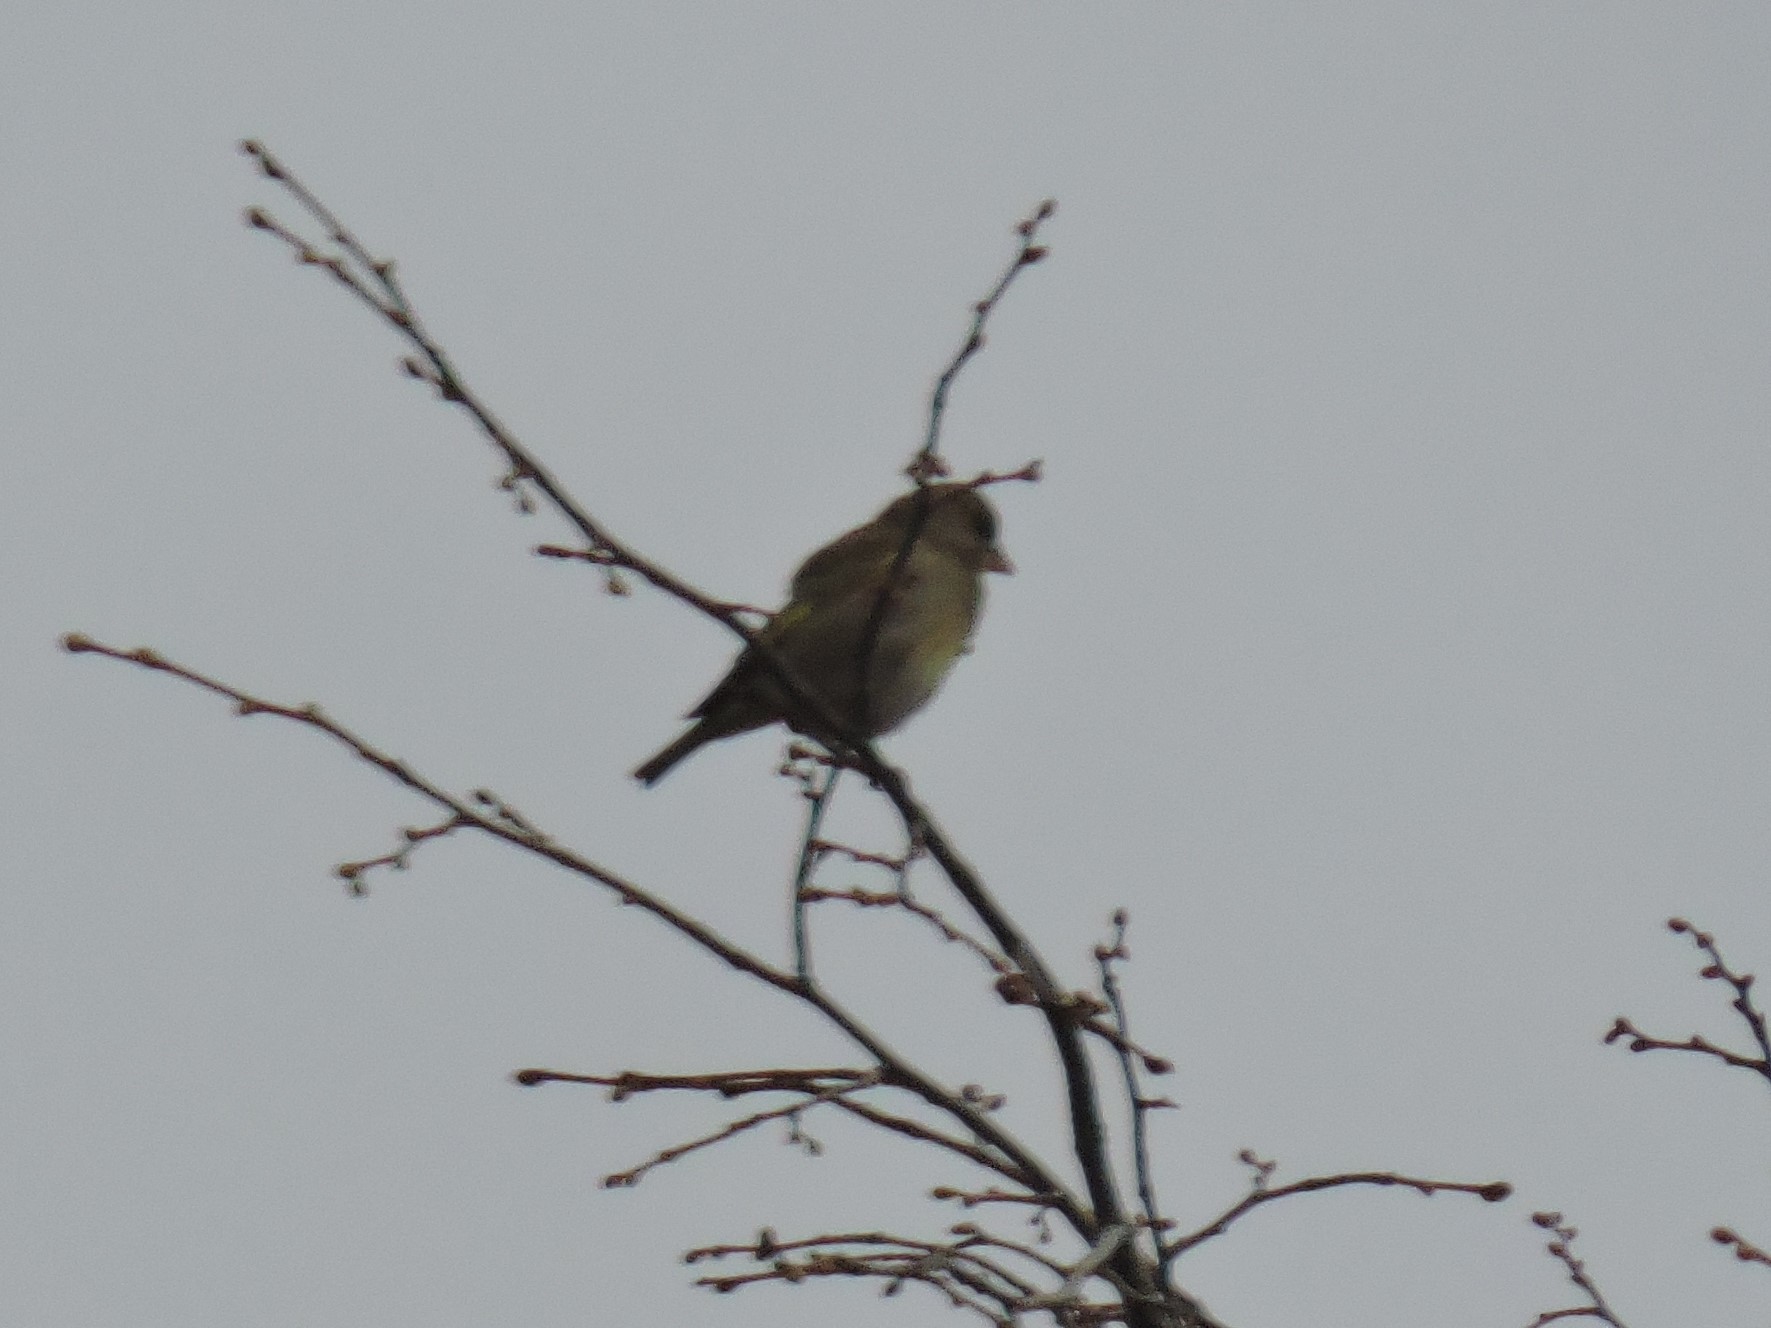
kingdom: Plantae
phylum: Tracheophyta
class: Liliopsida
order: Poales
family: Poaceae
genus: Chloris
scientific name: Chloris chloris
